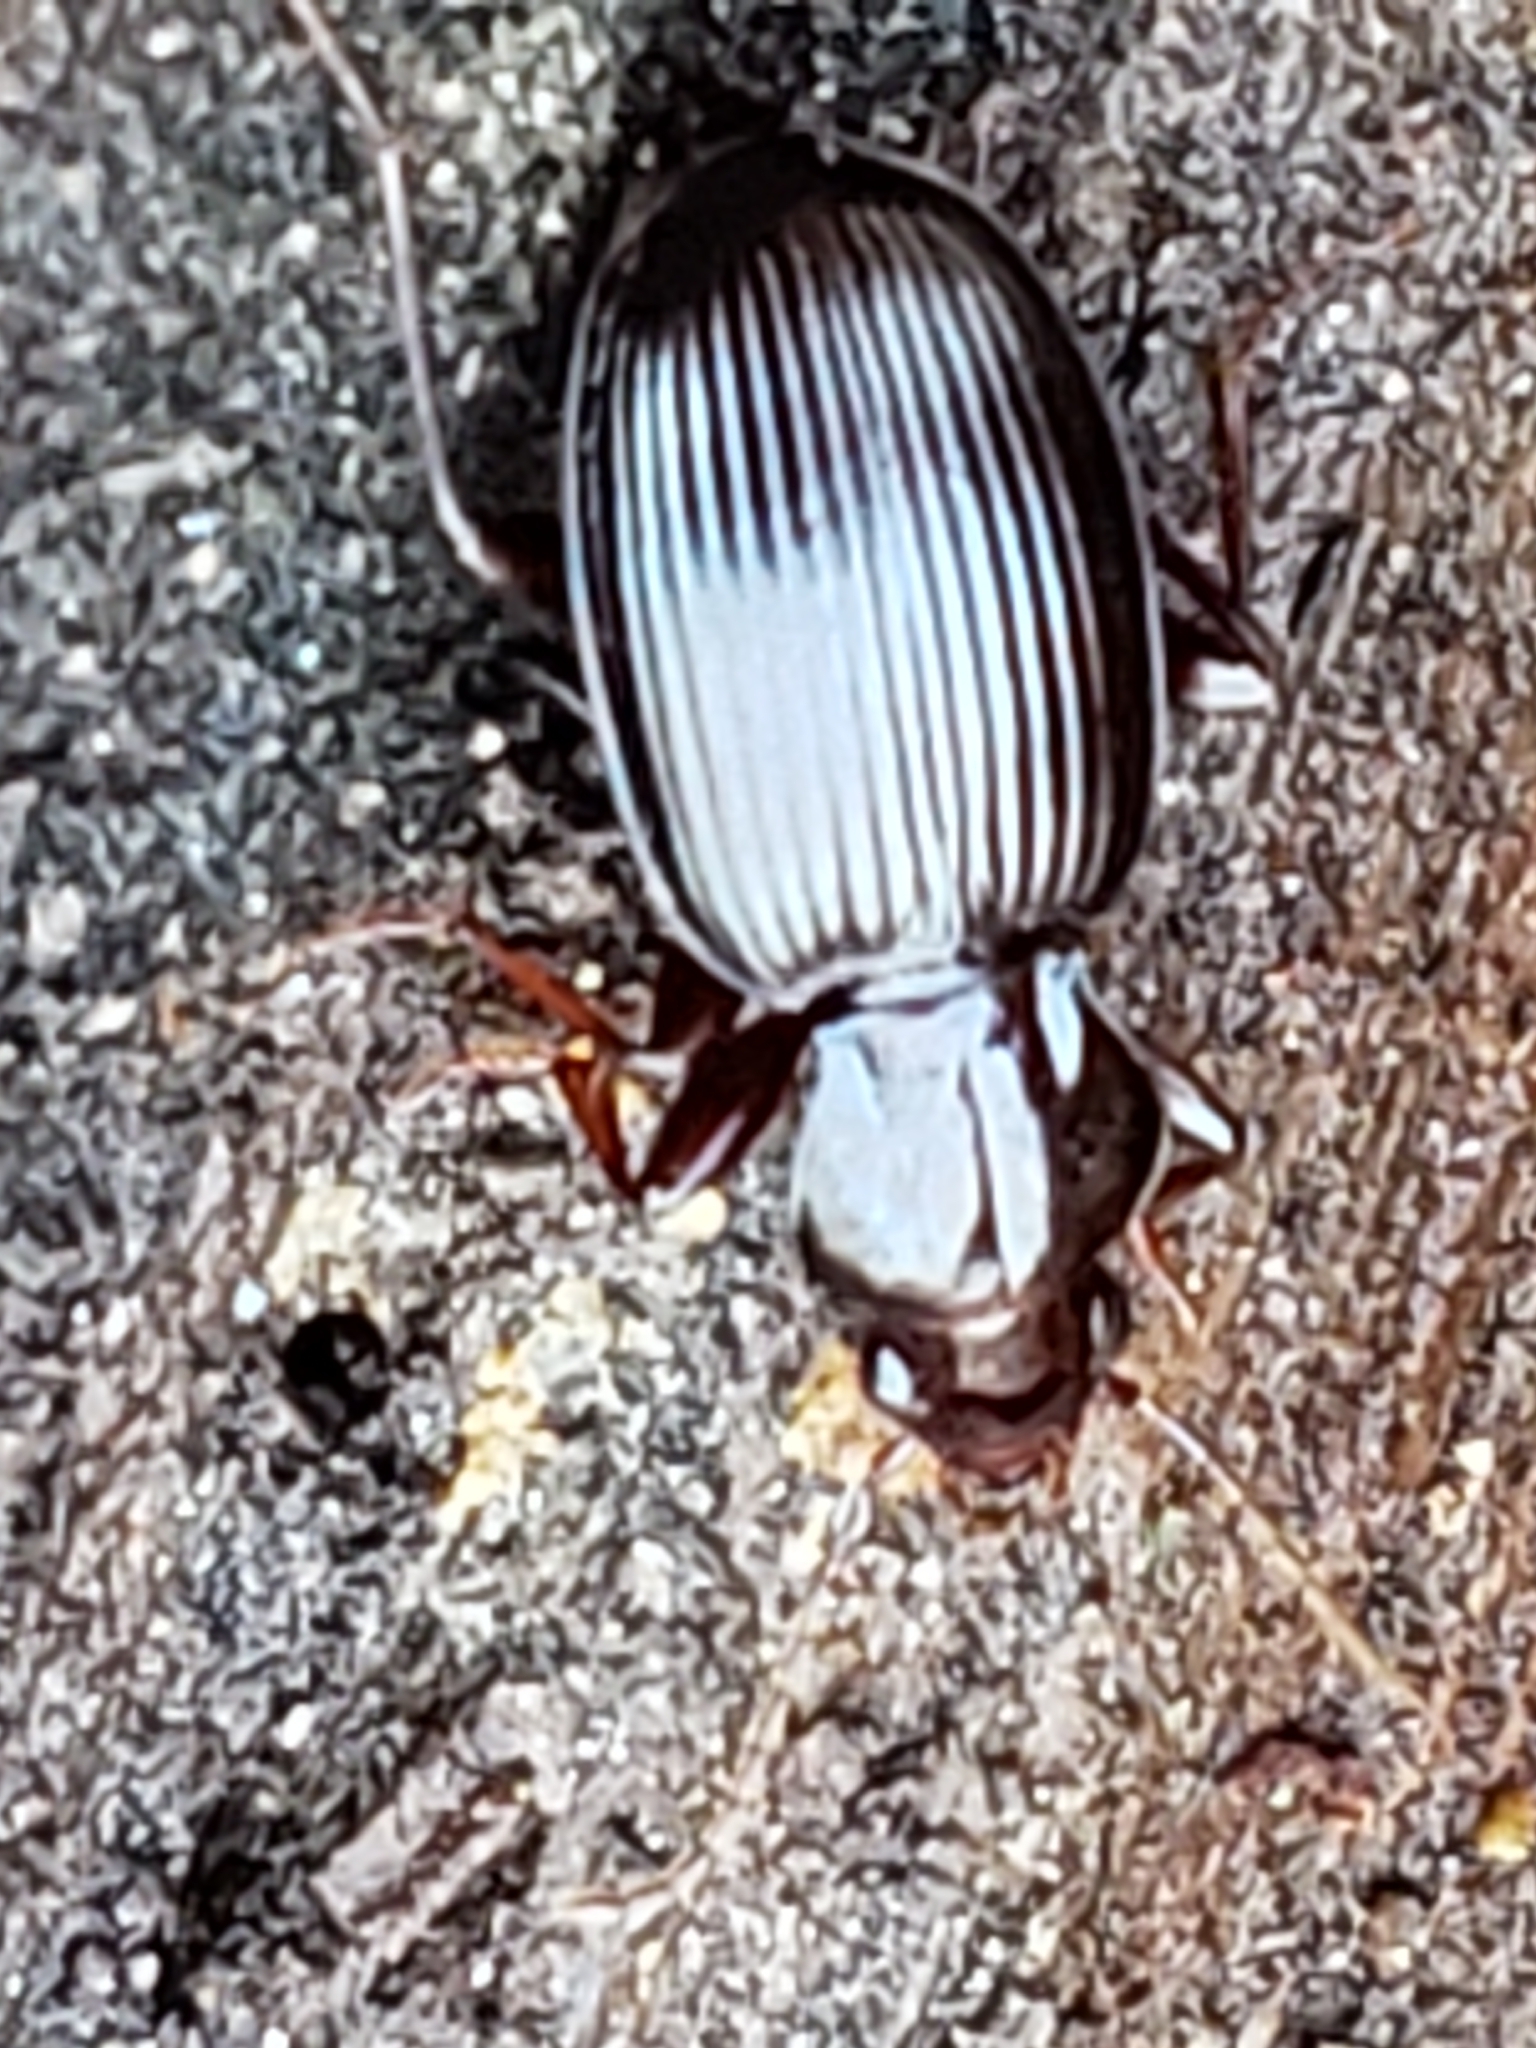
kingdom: Animalia
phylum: Arthropoda
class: Insecta
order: Coleoptera
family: Carabidae
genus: Gastrellarius
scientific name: Gastrellarius honestus
